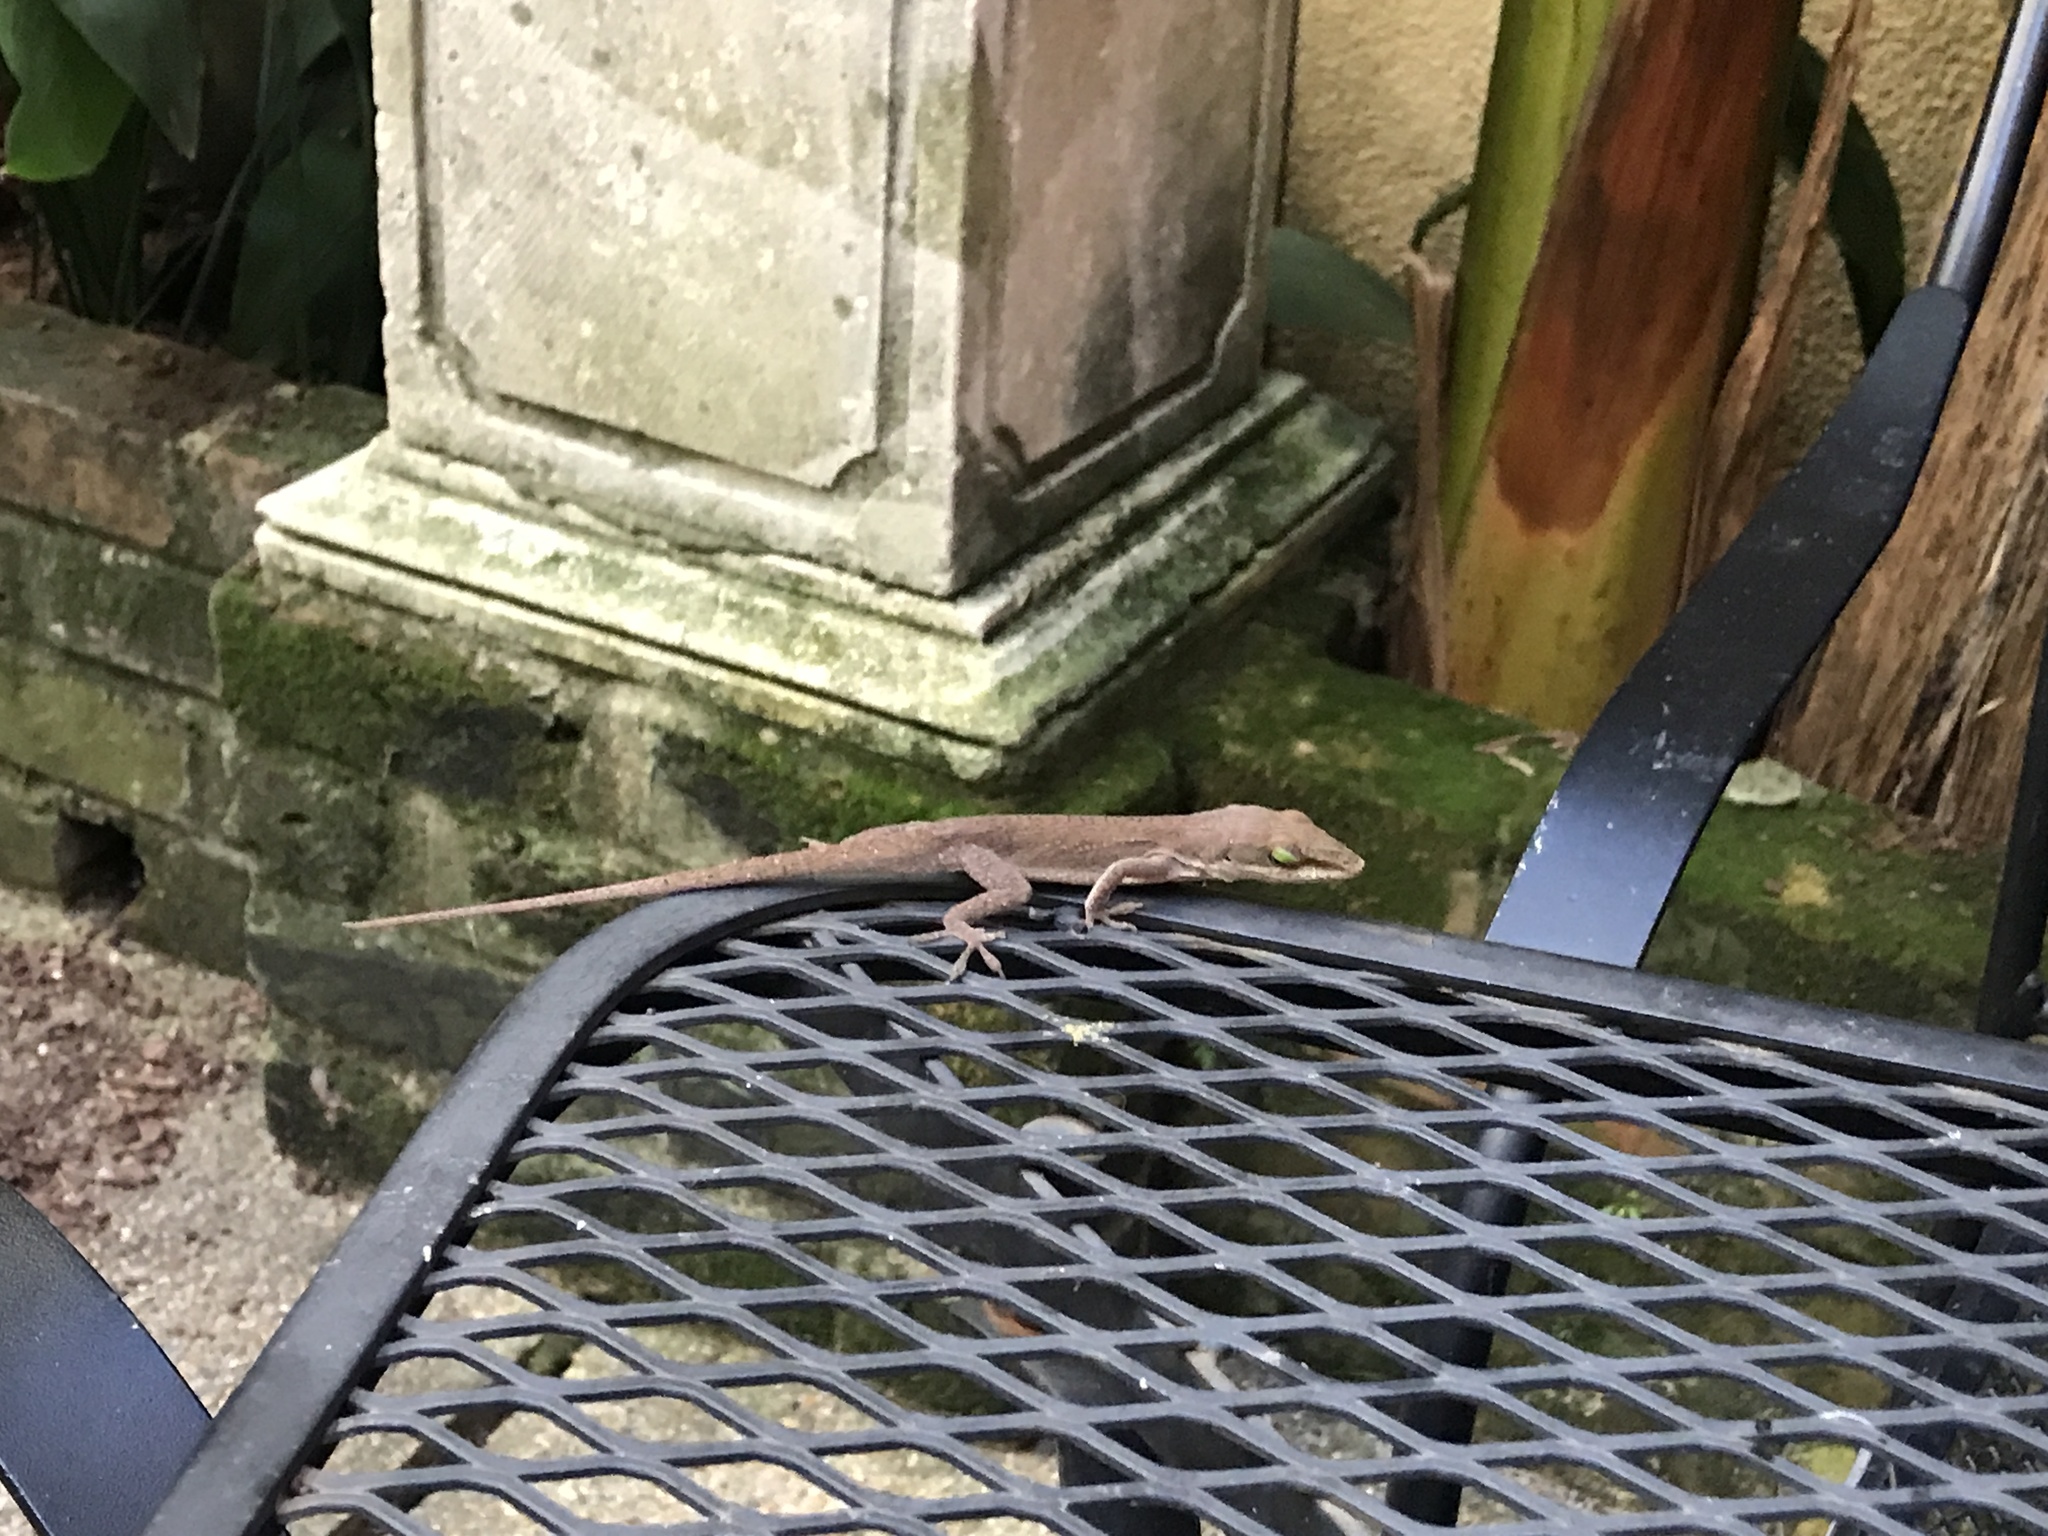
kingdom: Animalia
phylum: Chordata
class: Squamata
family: Dactyloidae
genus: Anolis
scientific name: Anolis carolinensis
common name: Green anole
